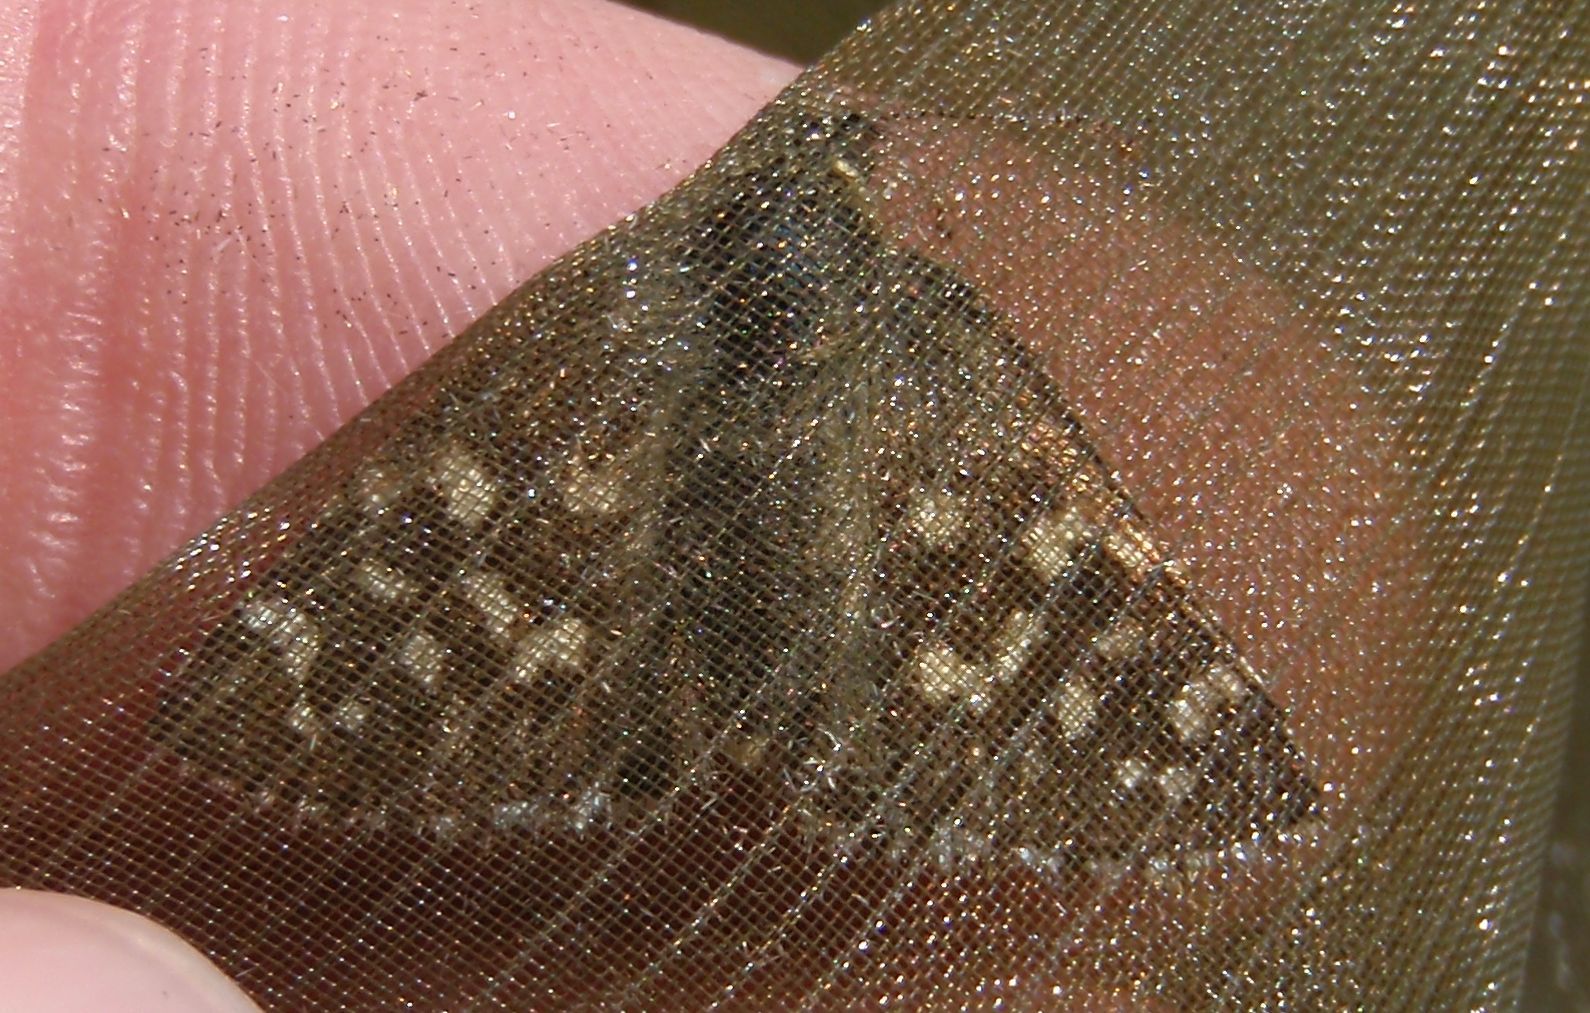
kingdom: Animalia
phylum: Arthropoda
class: Insecta
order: Lepidoptera
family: Hesperiidae
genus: Pyrgus
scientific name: Pyrgus malvoides
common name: Southern grizzled skipper
